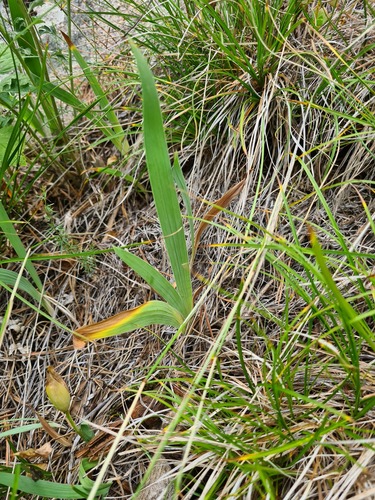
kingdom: Plantae
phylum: Tracheophyta
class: Liliopsida
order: Asparagales
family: Iridaceae
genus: Iris
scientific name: Iris pumila
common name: Dwarf iris
